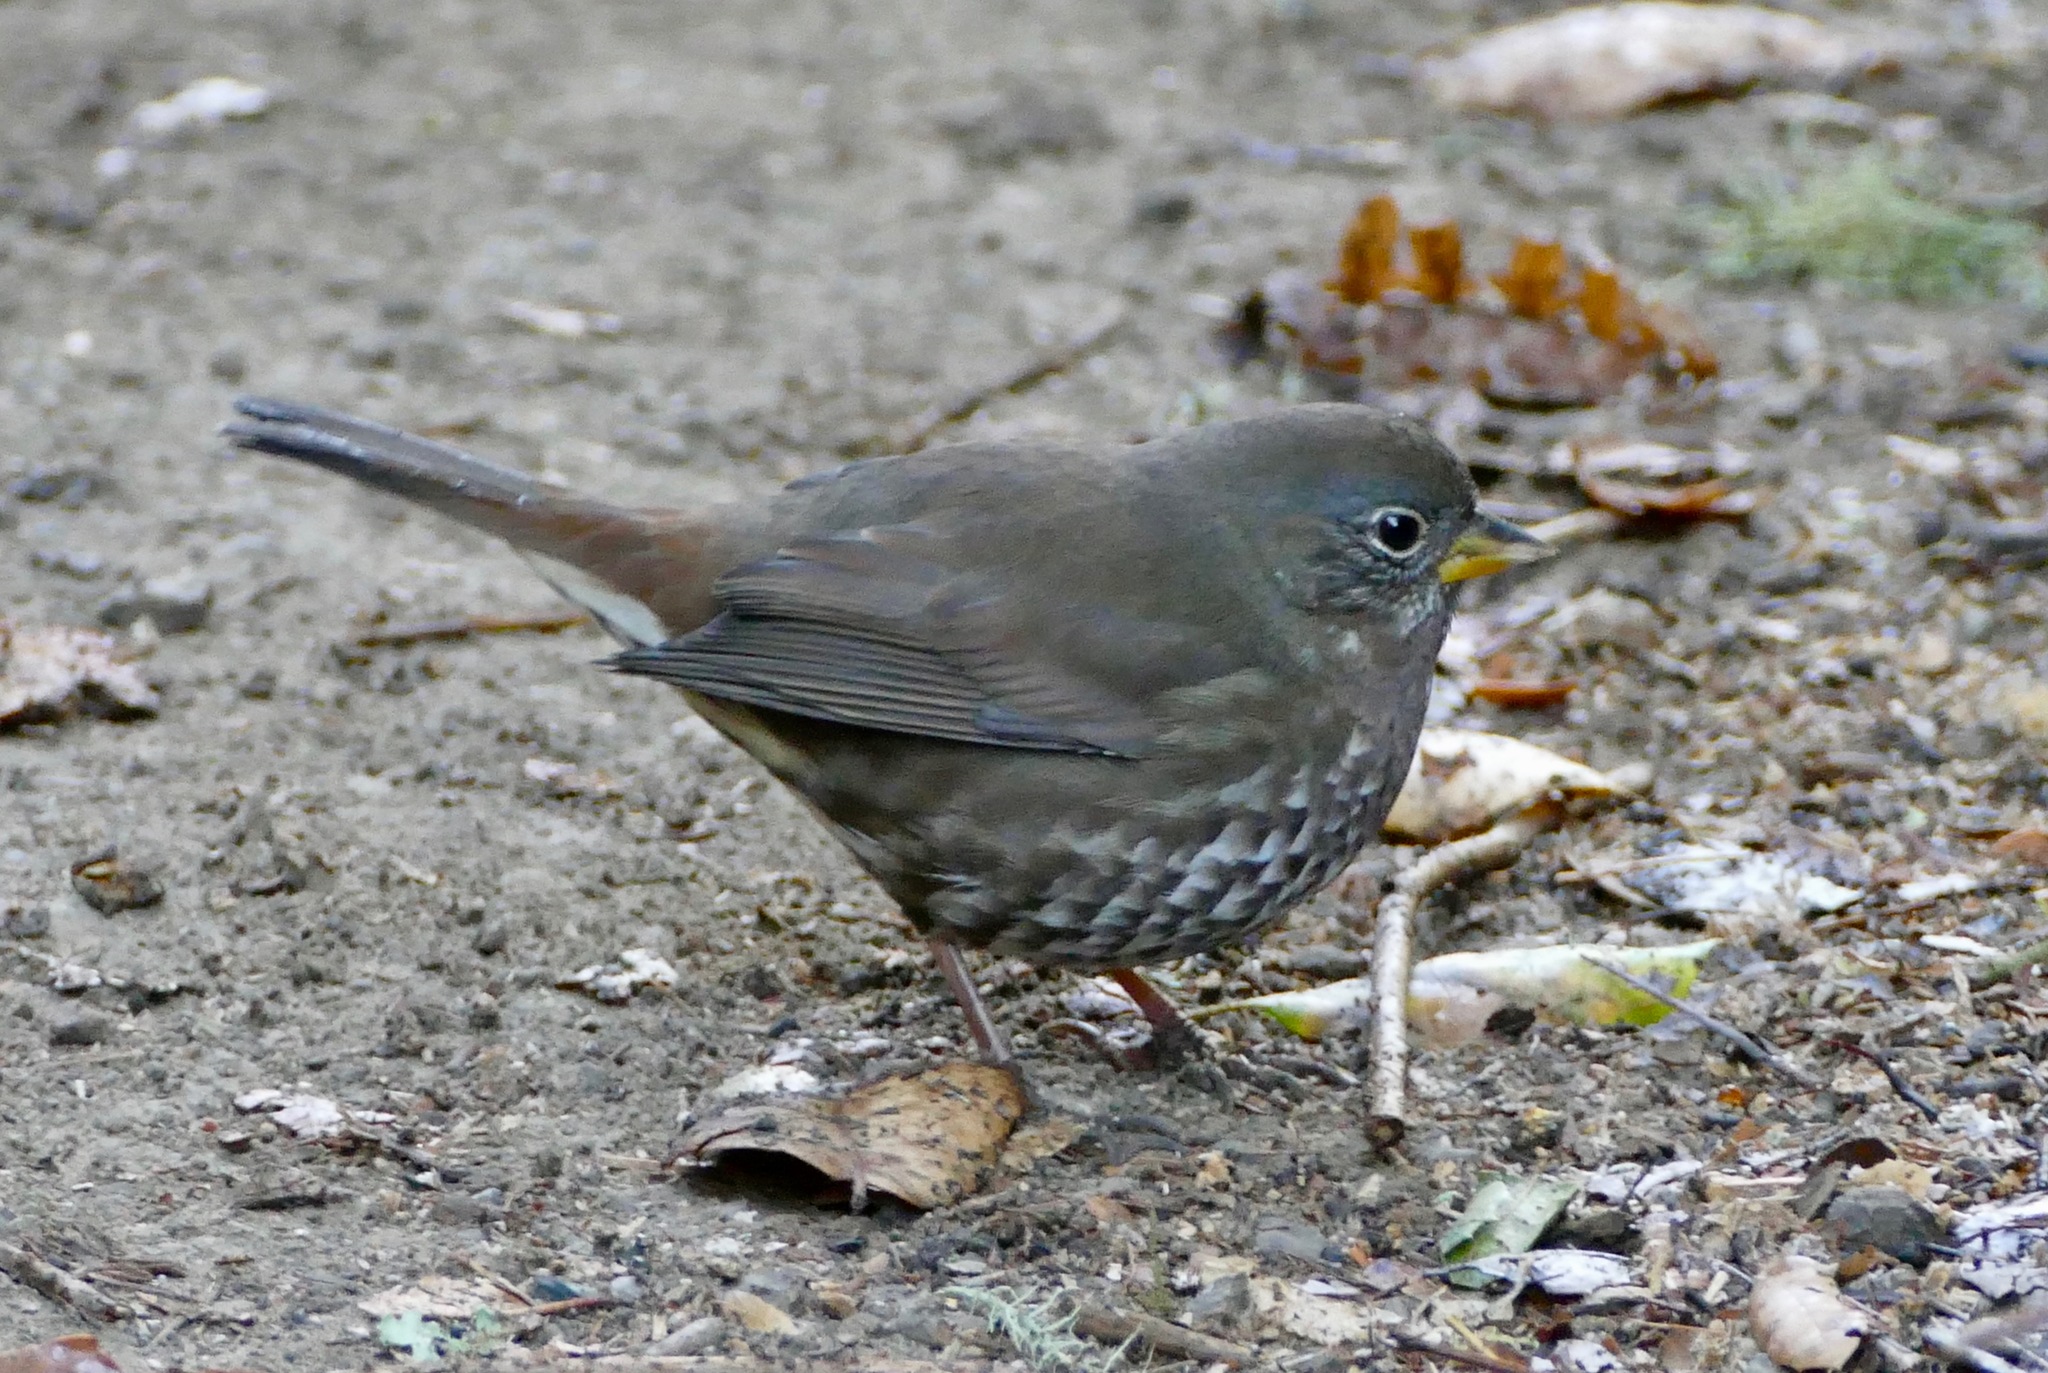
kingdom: Animalia
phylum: Chordata
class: Aves
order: Passeriformes
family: Passerellidae
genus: Passerella
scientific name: Passerella iliaca
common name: Fox sparrow
